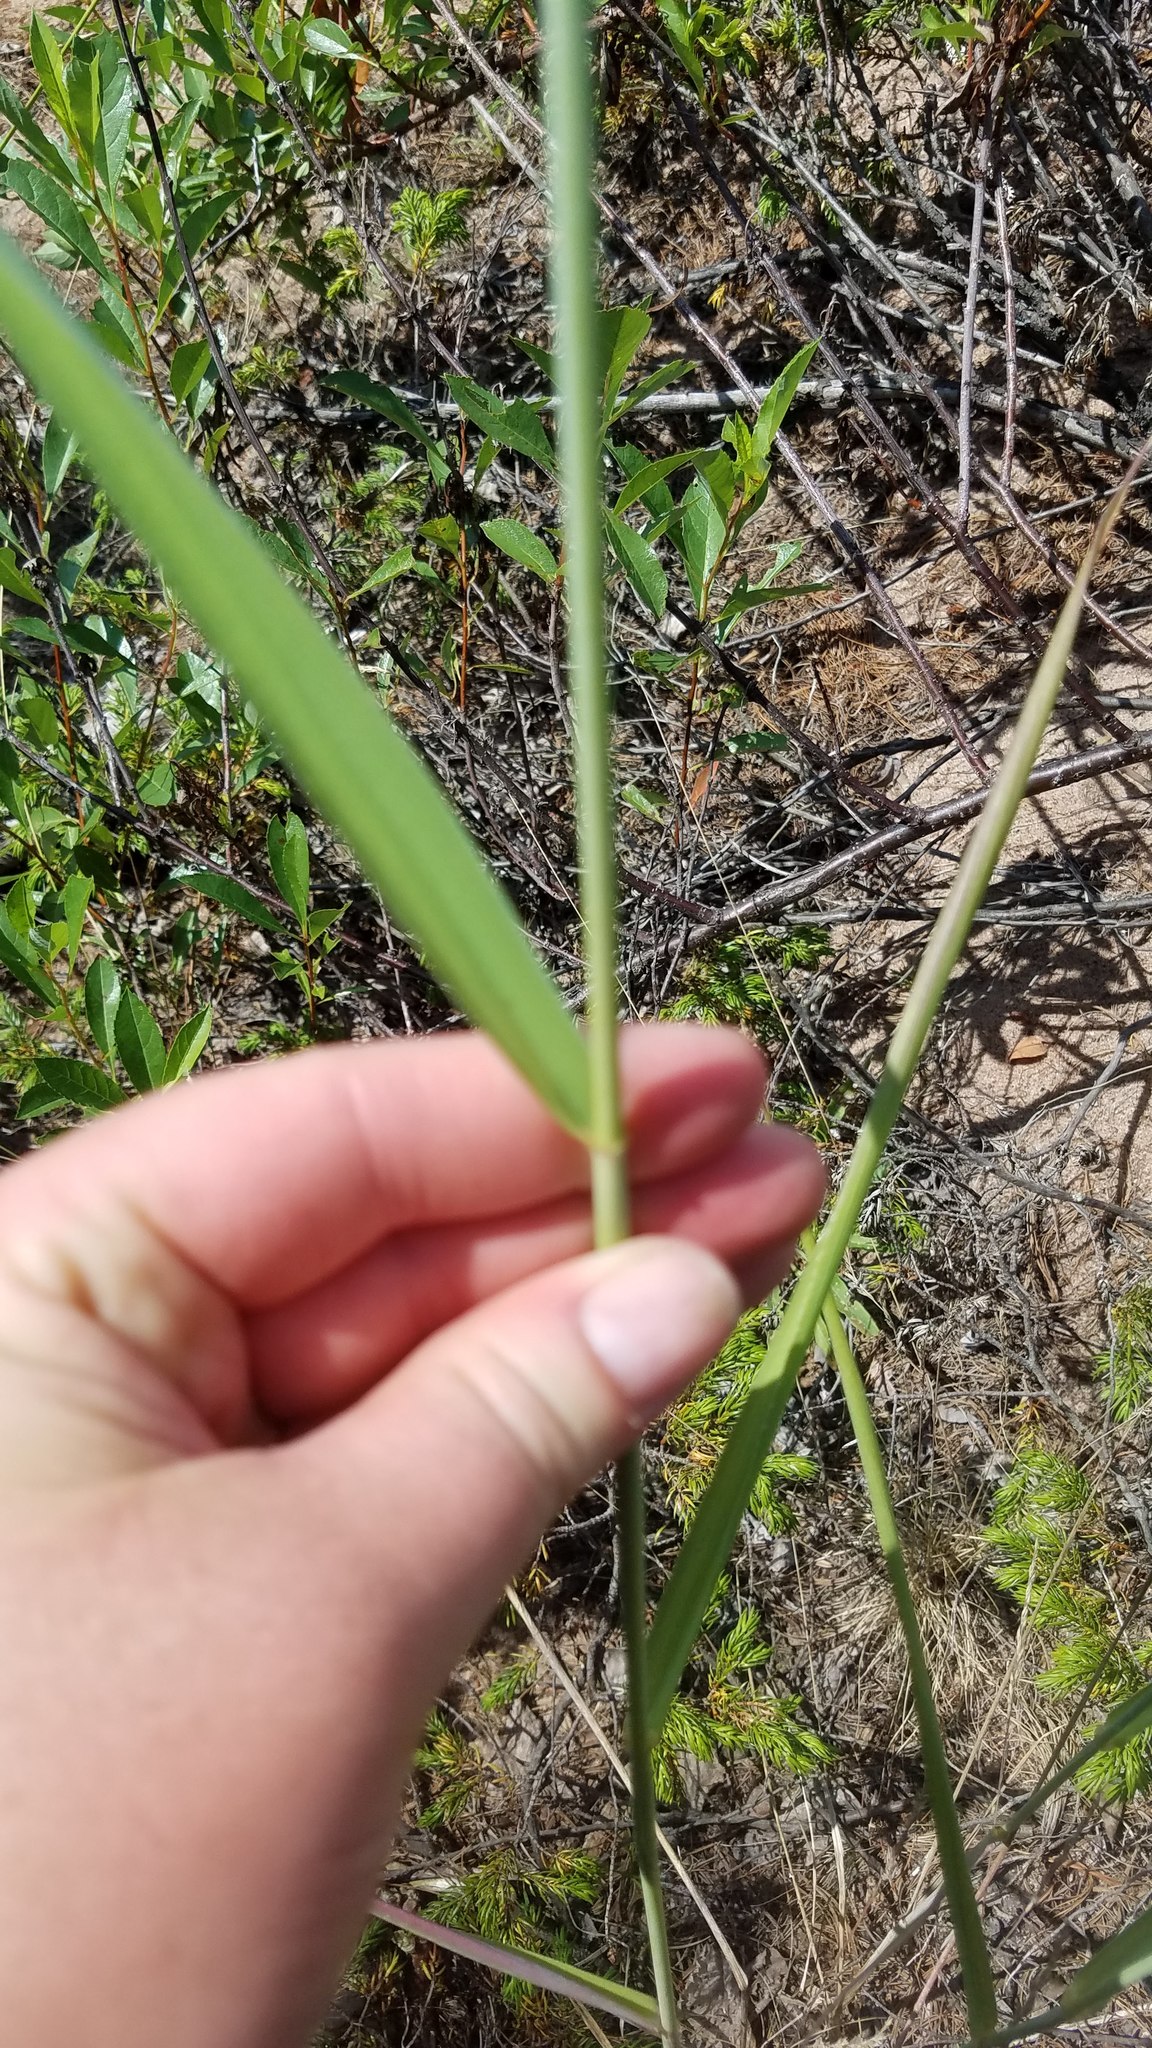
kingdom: Plantae
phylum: Tracheophyta
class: Liliopsida
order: Poales
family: Poaceae
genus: Elymus
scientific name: Elymus canadensis
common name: Canada wild rye
